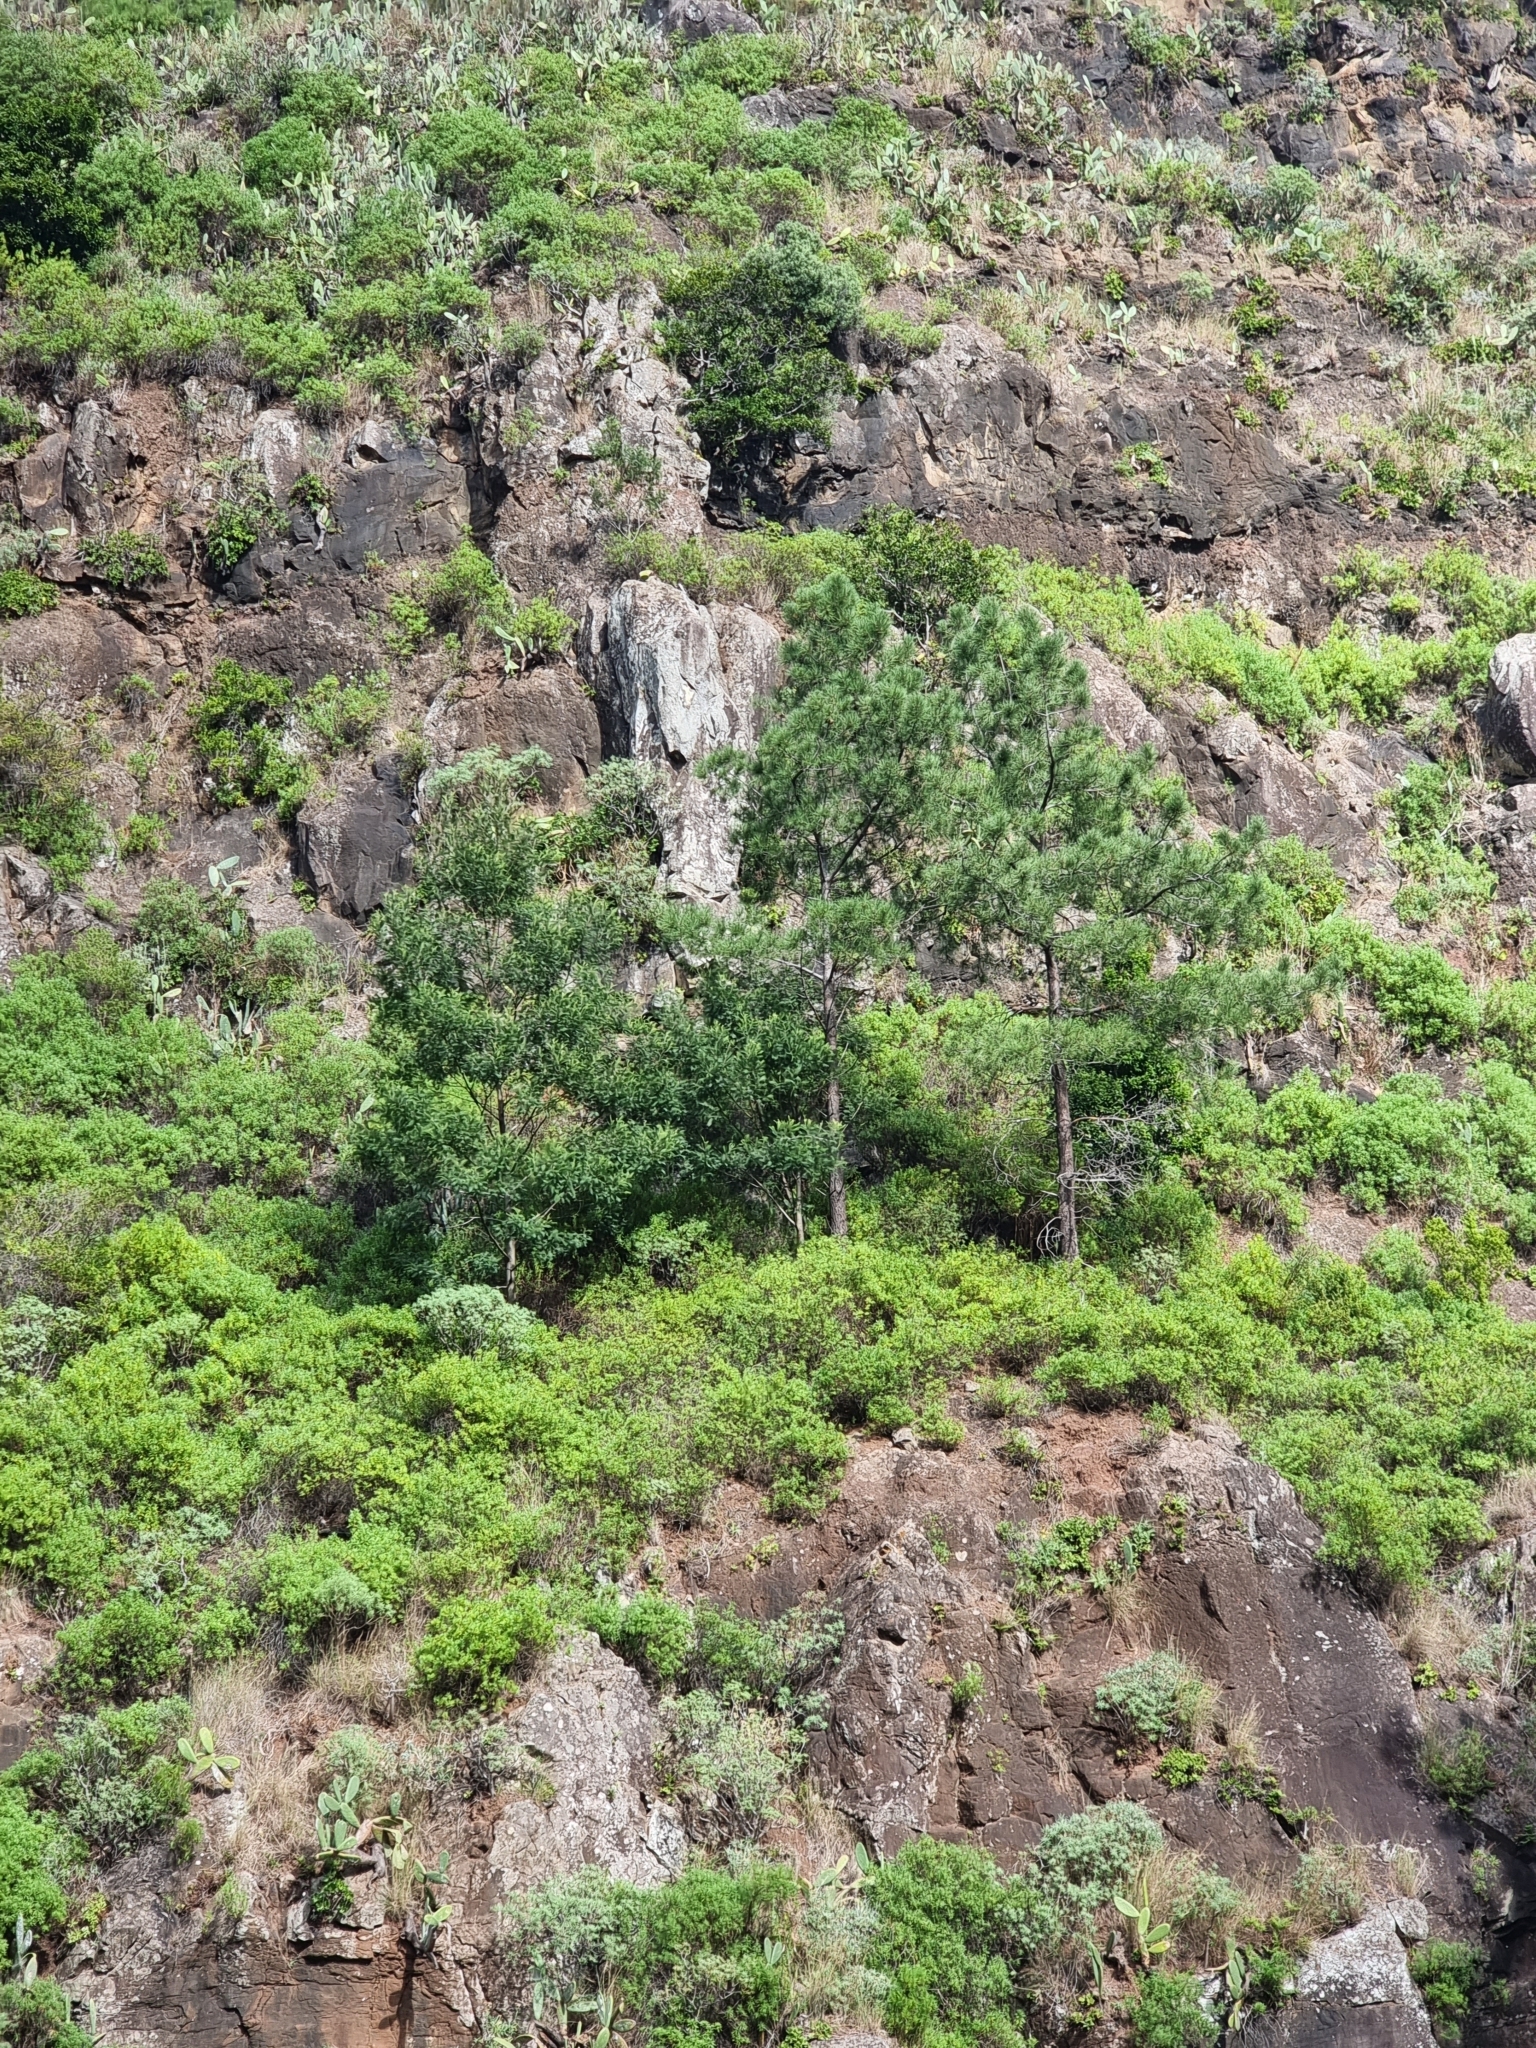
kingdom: Plantae
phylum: Tracheophyta
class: Pinopsida
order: Pinales
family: Pinaceae
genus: Pinus
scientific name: Pinus pinaster
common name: Maritime pine
